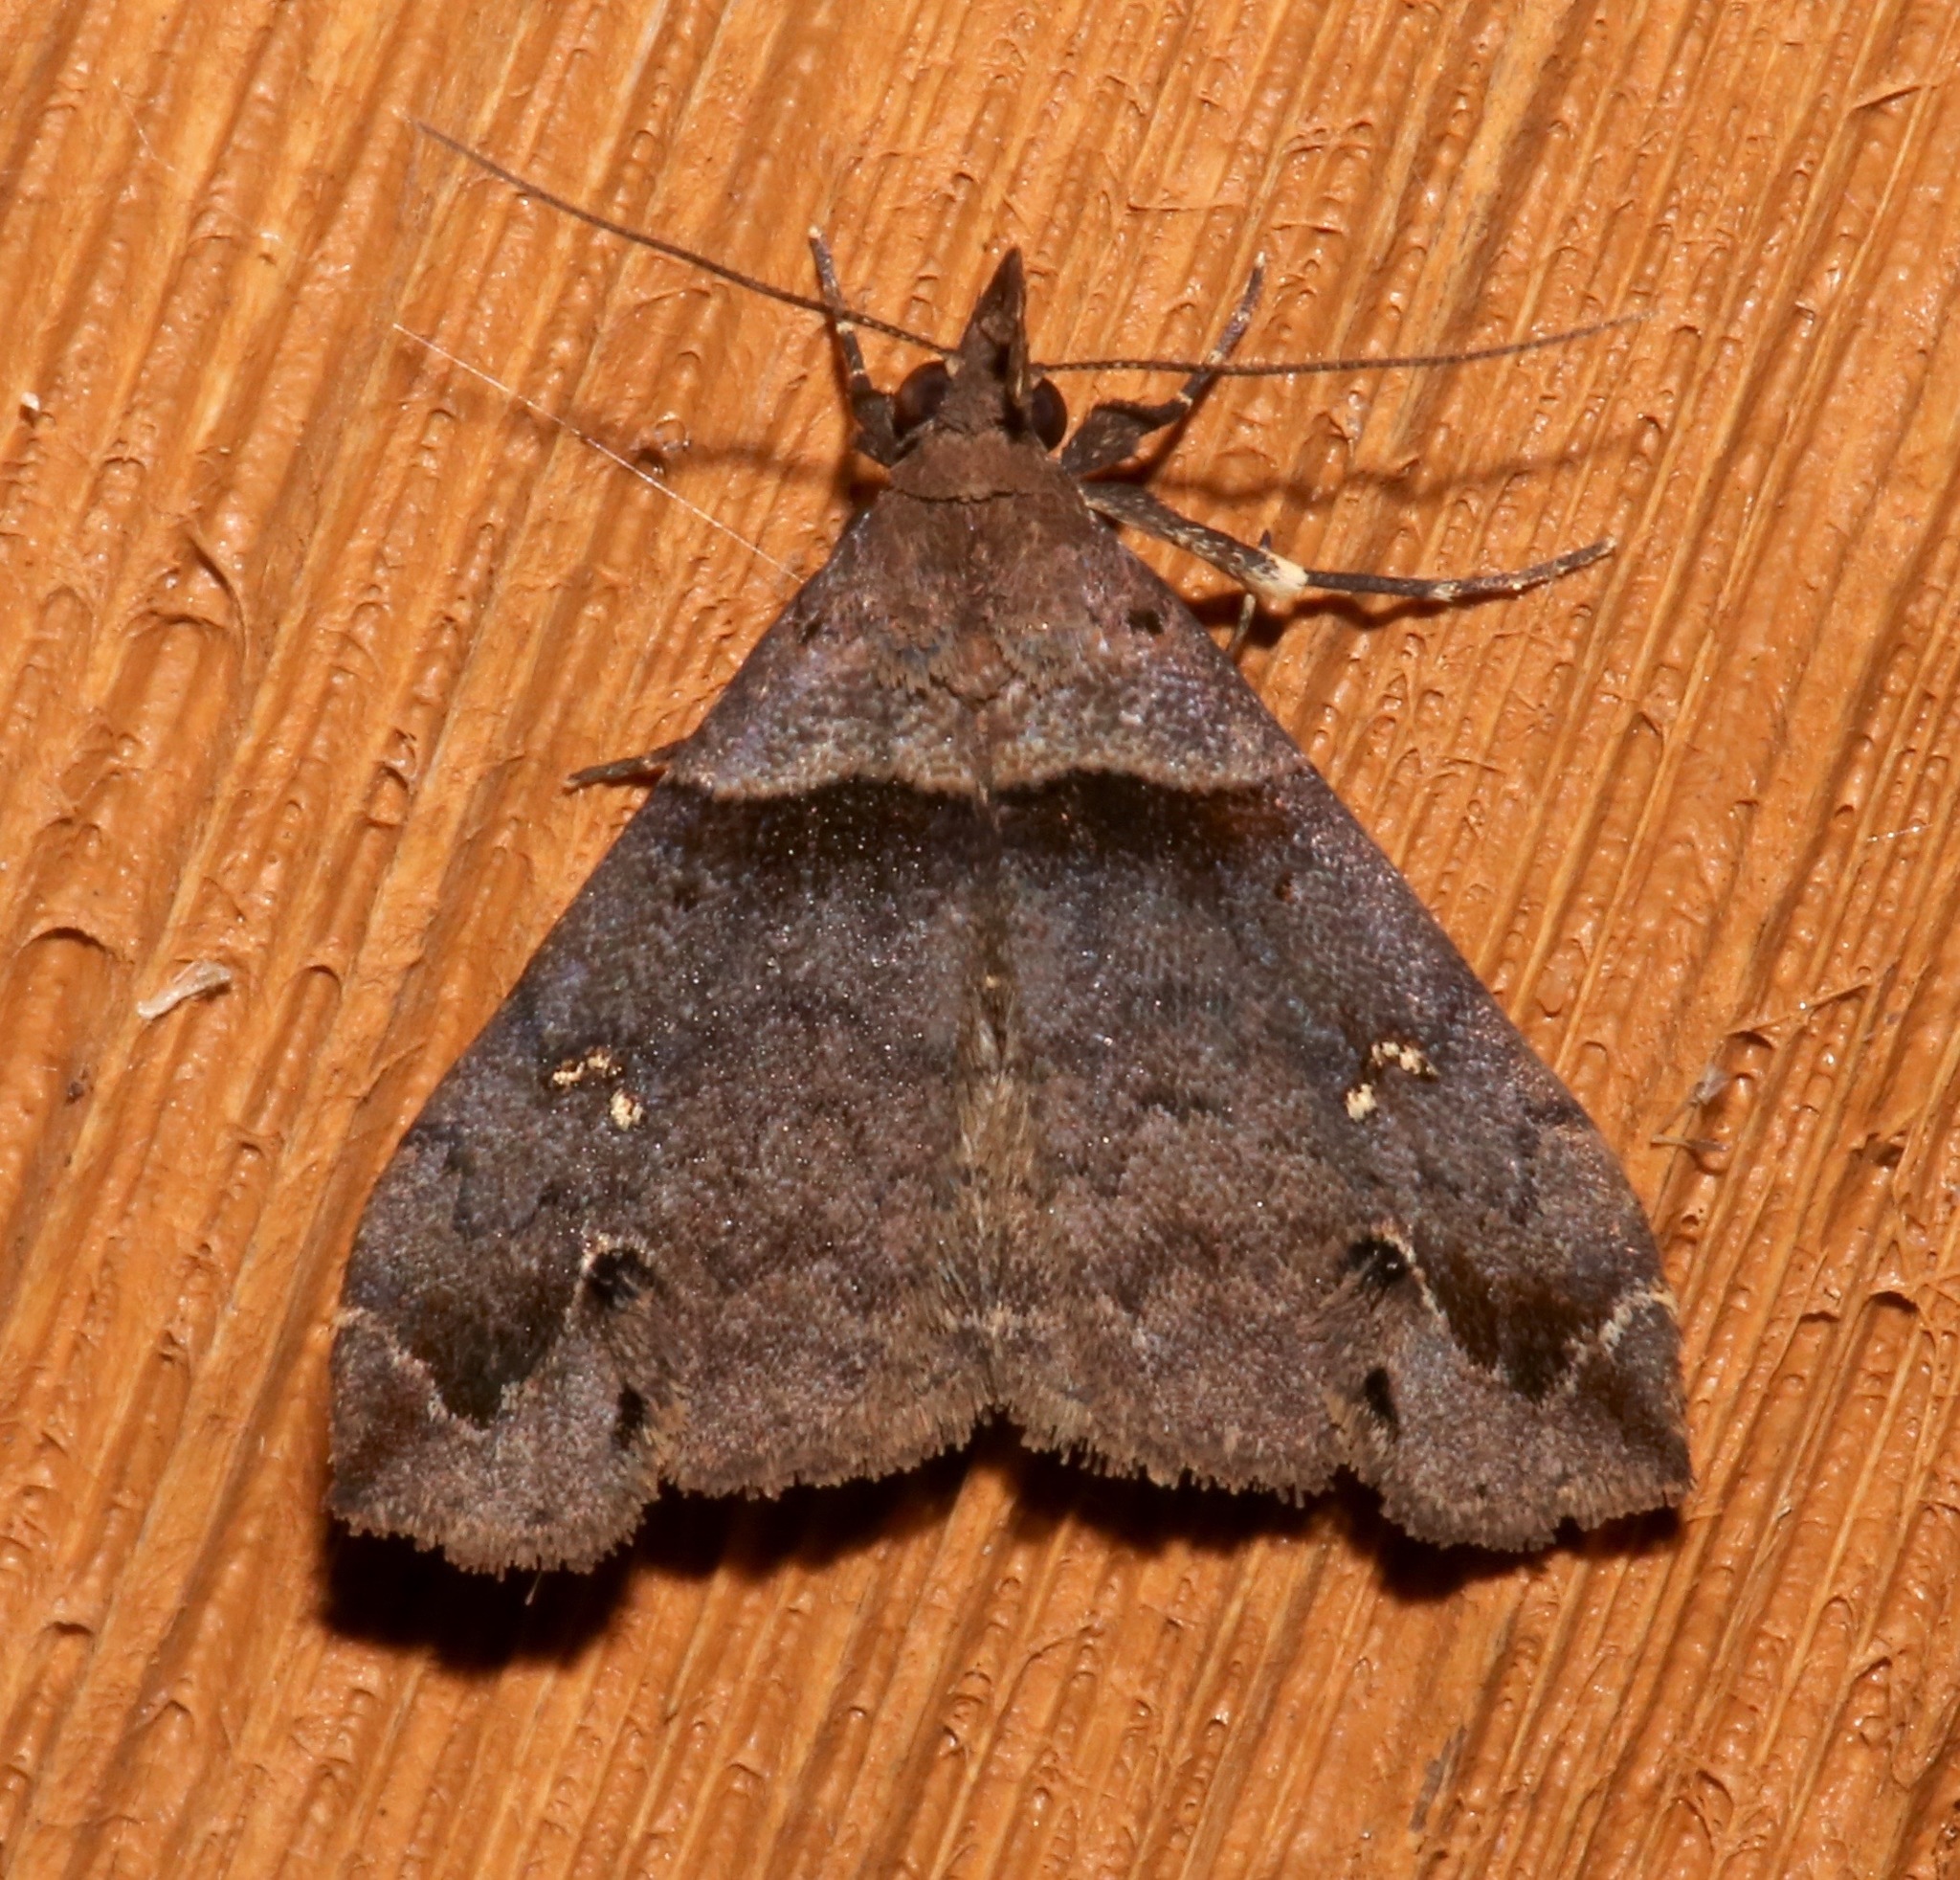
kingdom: Animalia
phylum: Arthropoda
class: Insecta
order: Lepidoptera
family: Erebidae
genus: Lascoria
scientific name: Lascoria ambigualis
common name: Ambiguous moth
